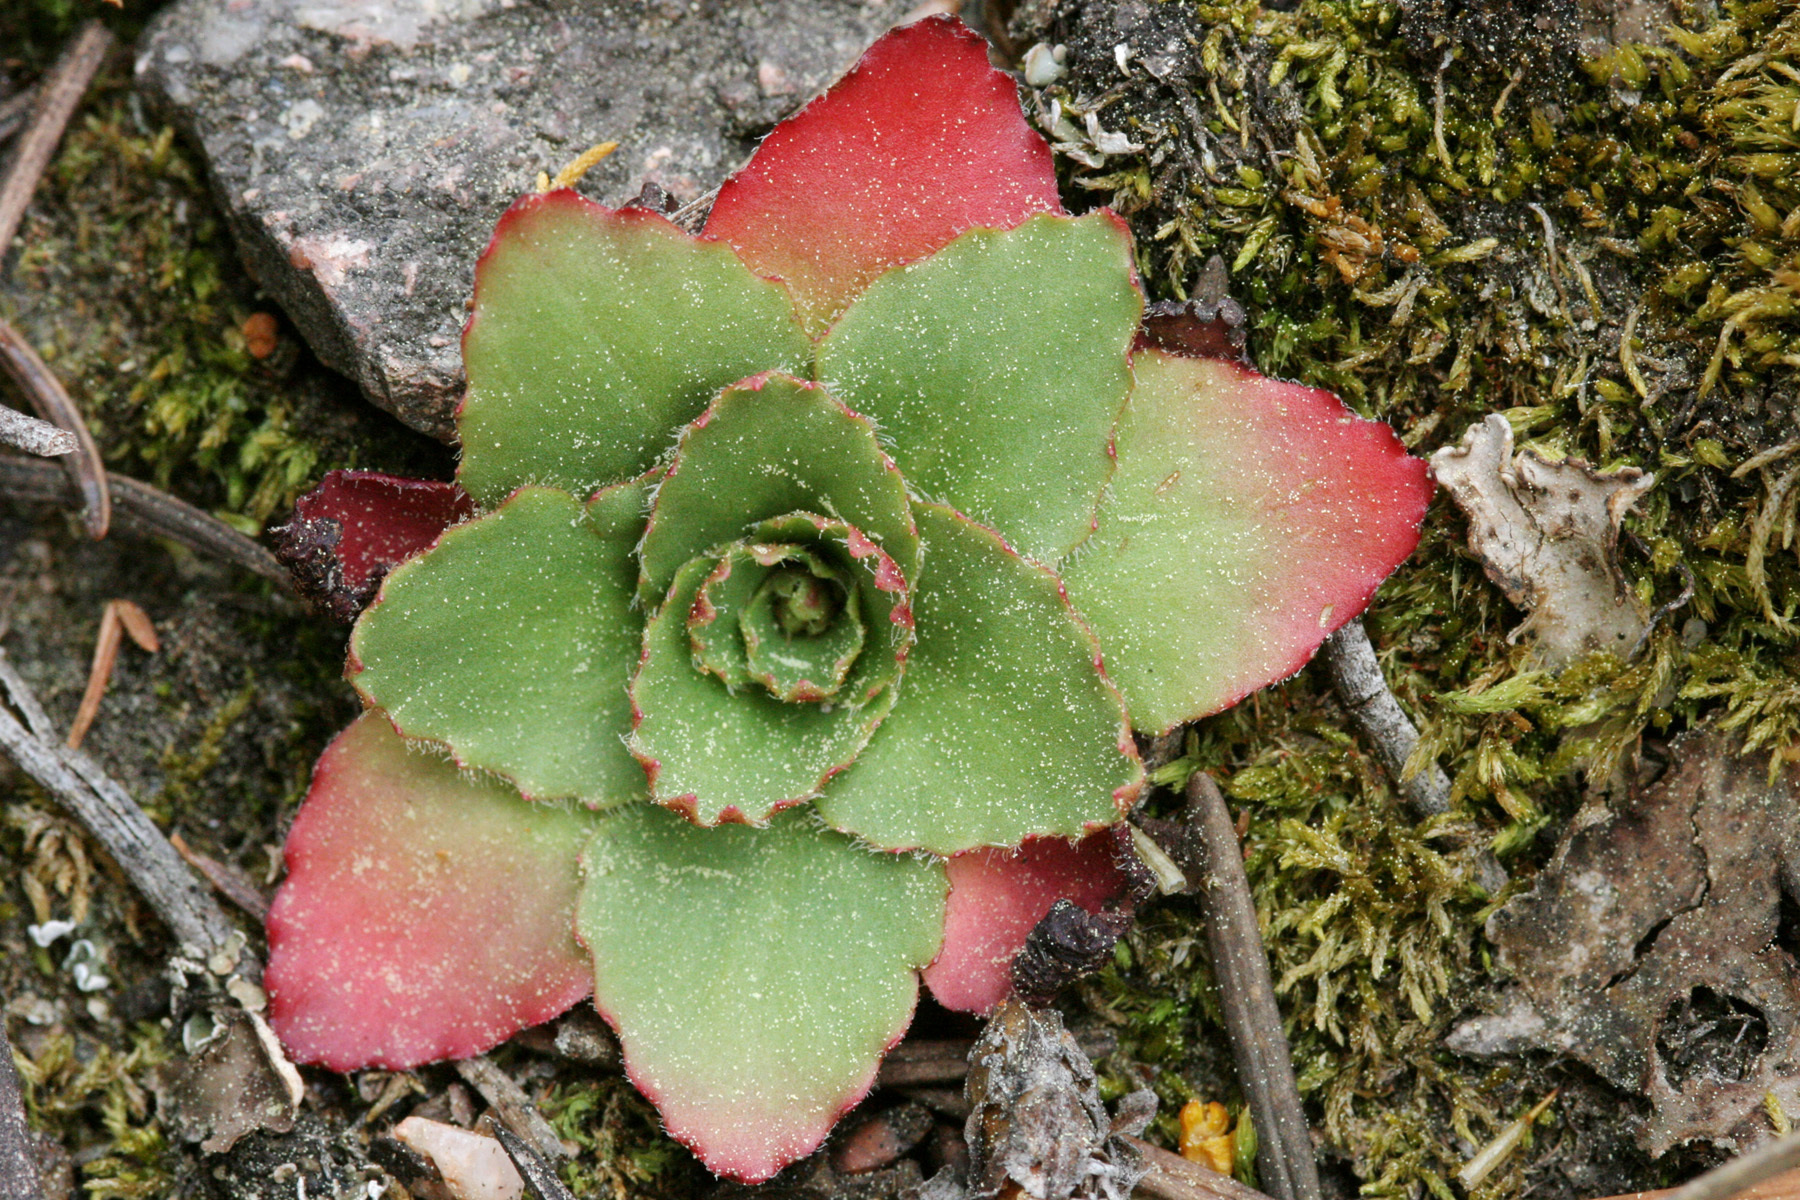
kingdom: Plantae
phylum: Tracheophyta
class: Magnoliopsida
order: Saxifragales
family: Saxifragaceae
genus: Micranthes
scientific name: Micranthes rhomboidea
